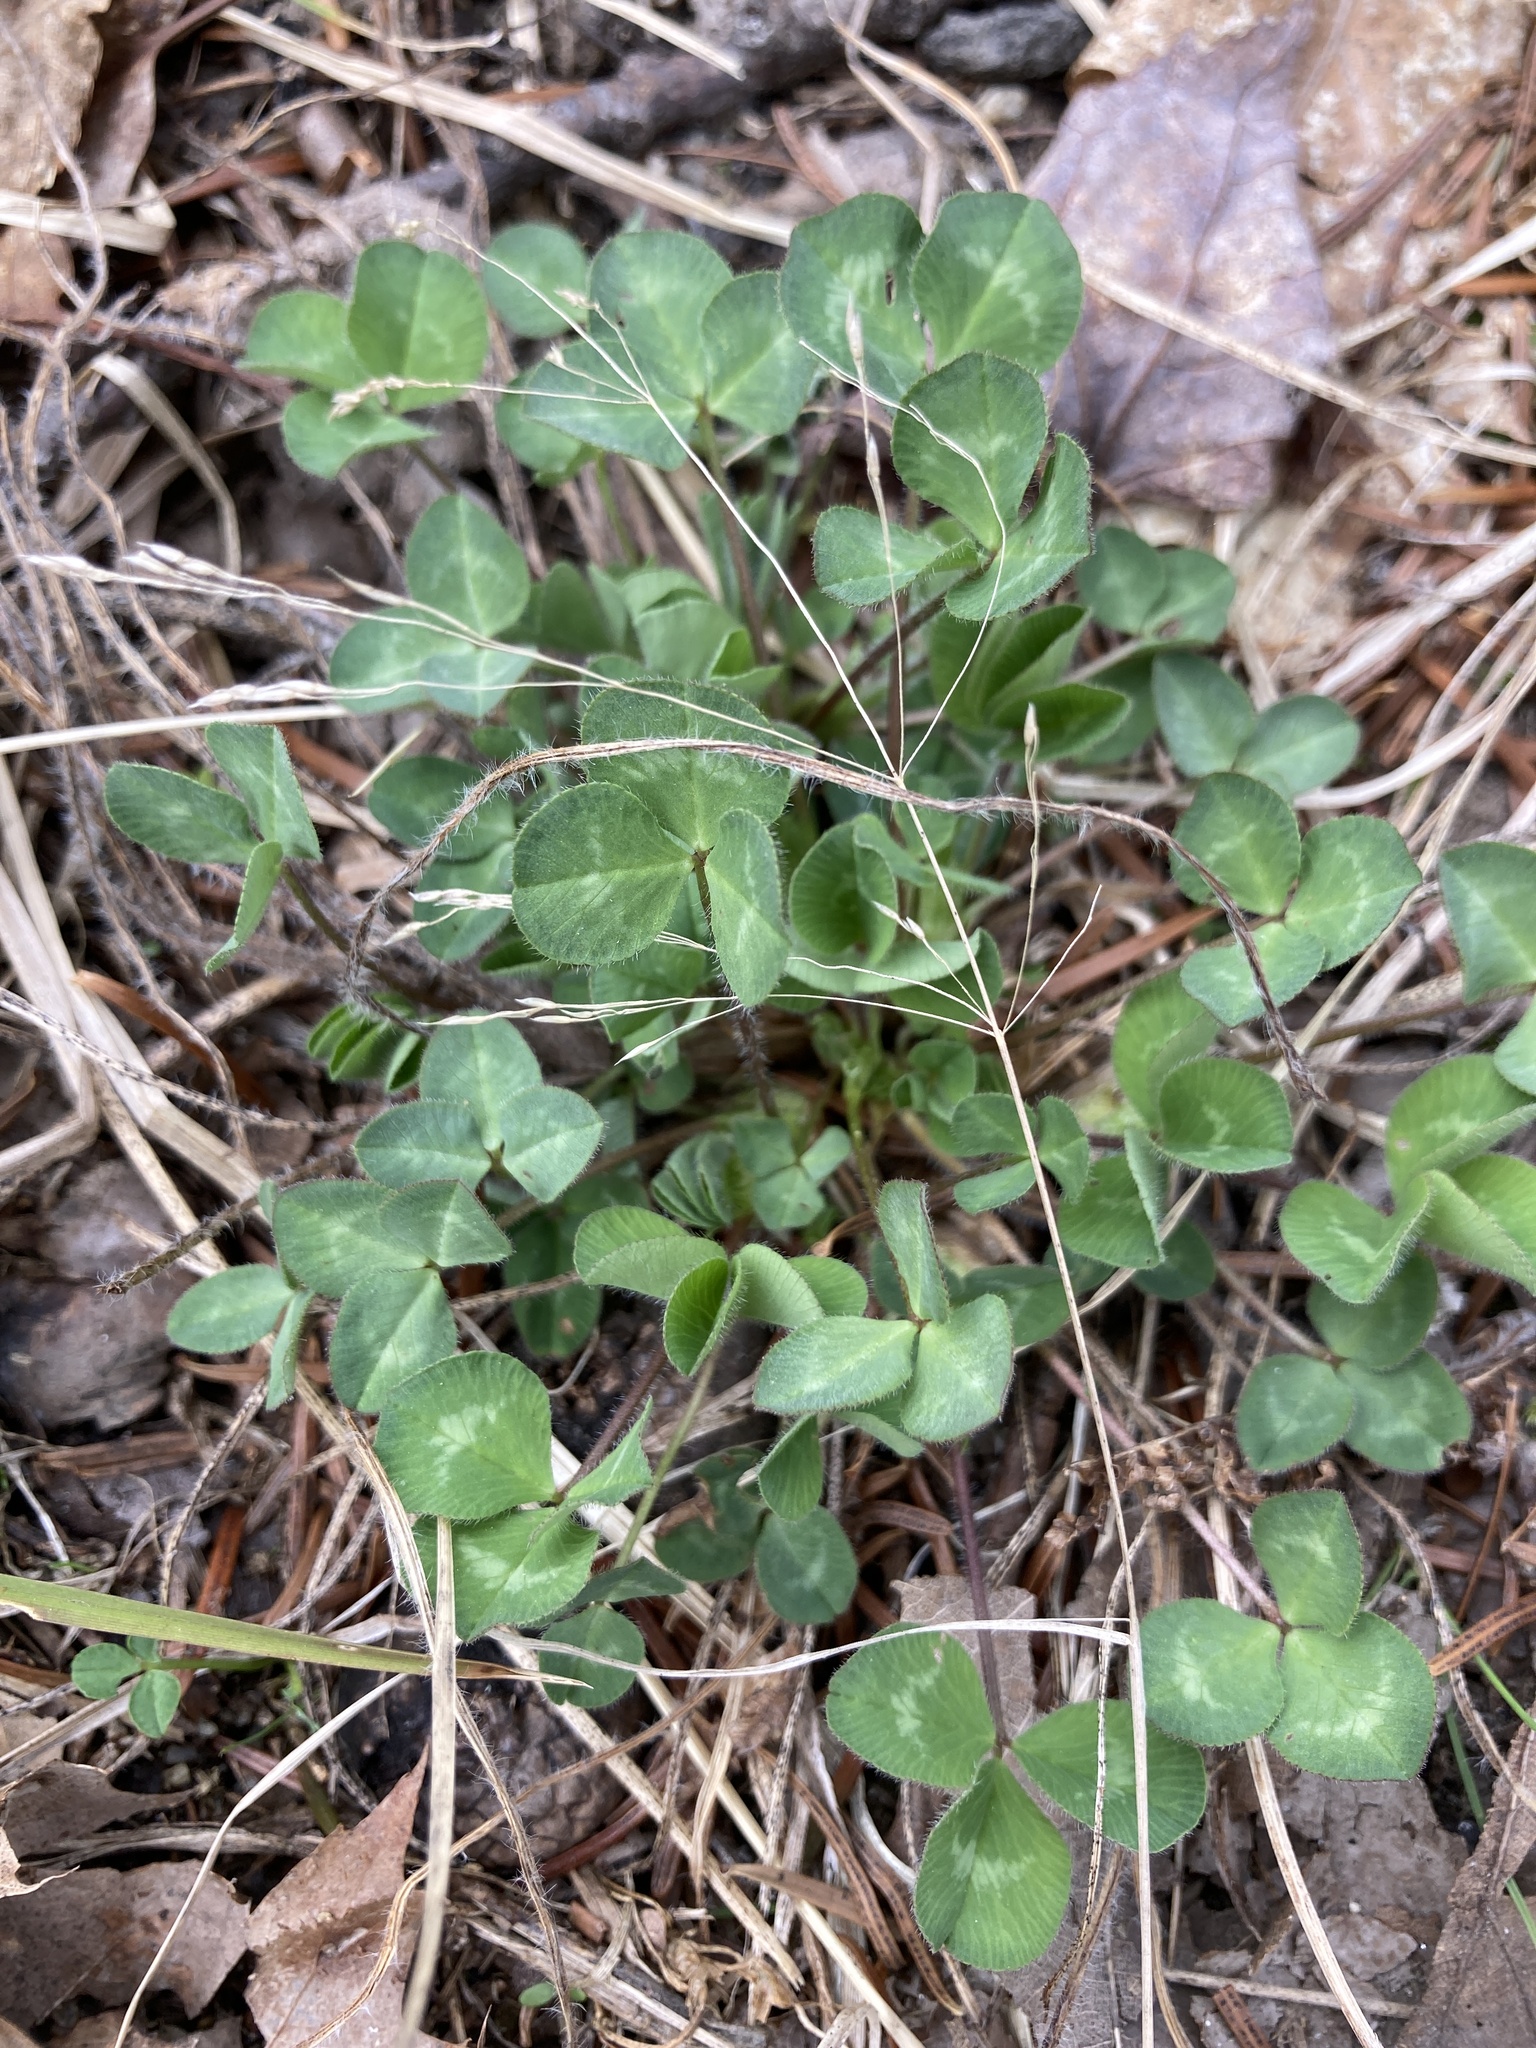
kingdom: Plantae
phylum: Tracheophyta
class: Magnoliopsida
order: Fabales
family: Fabaceae
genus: Trifolium
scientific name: Trifolium pratense
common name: Red clover
